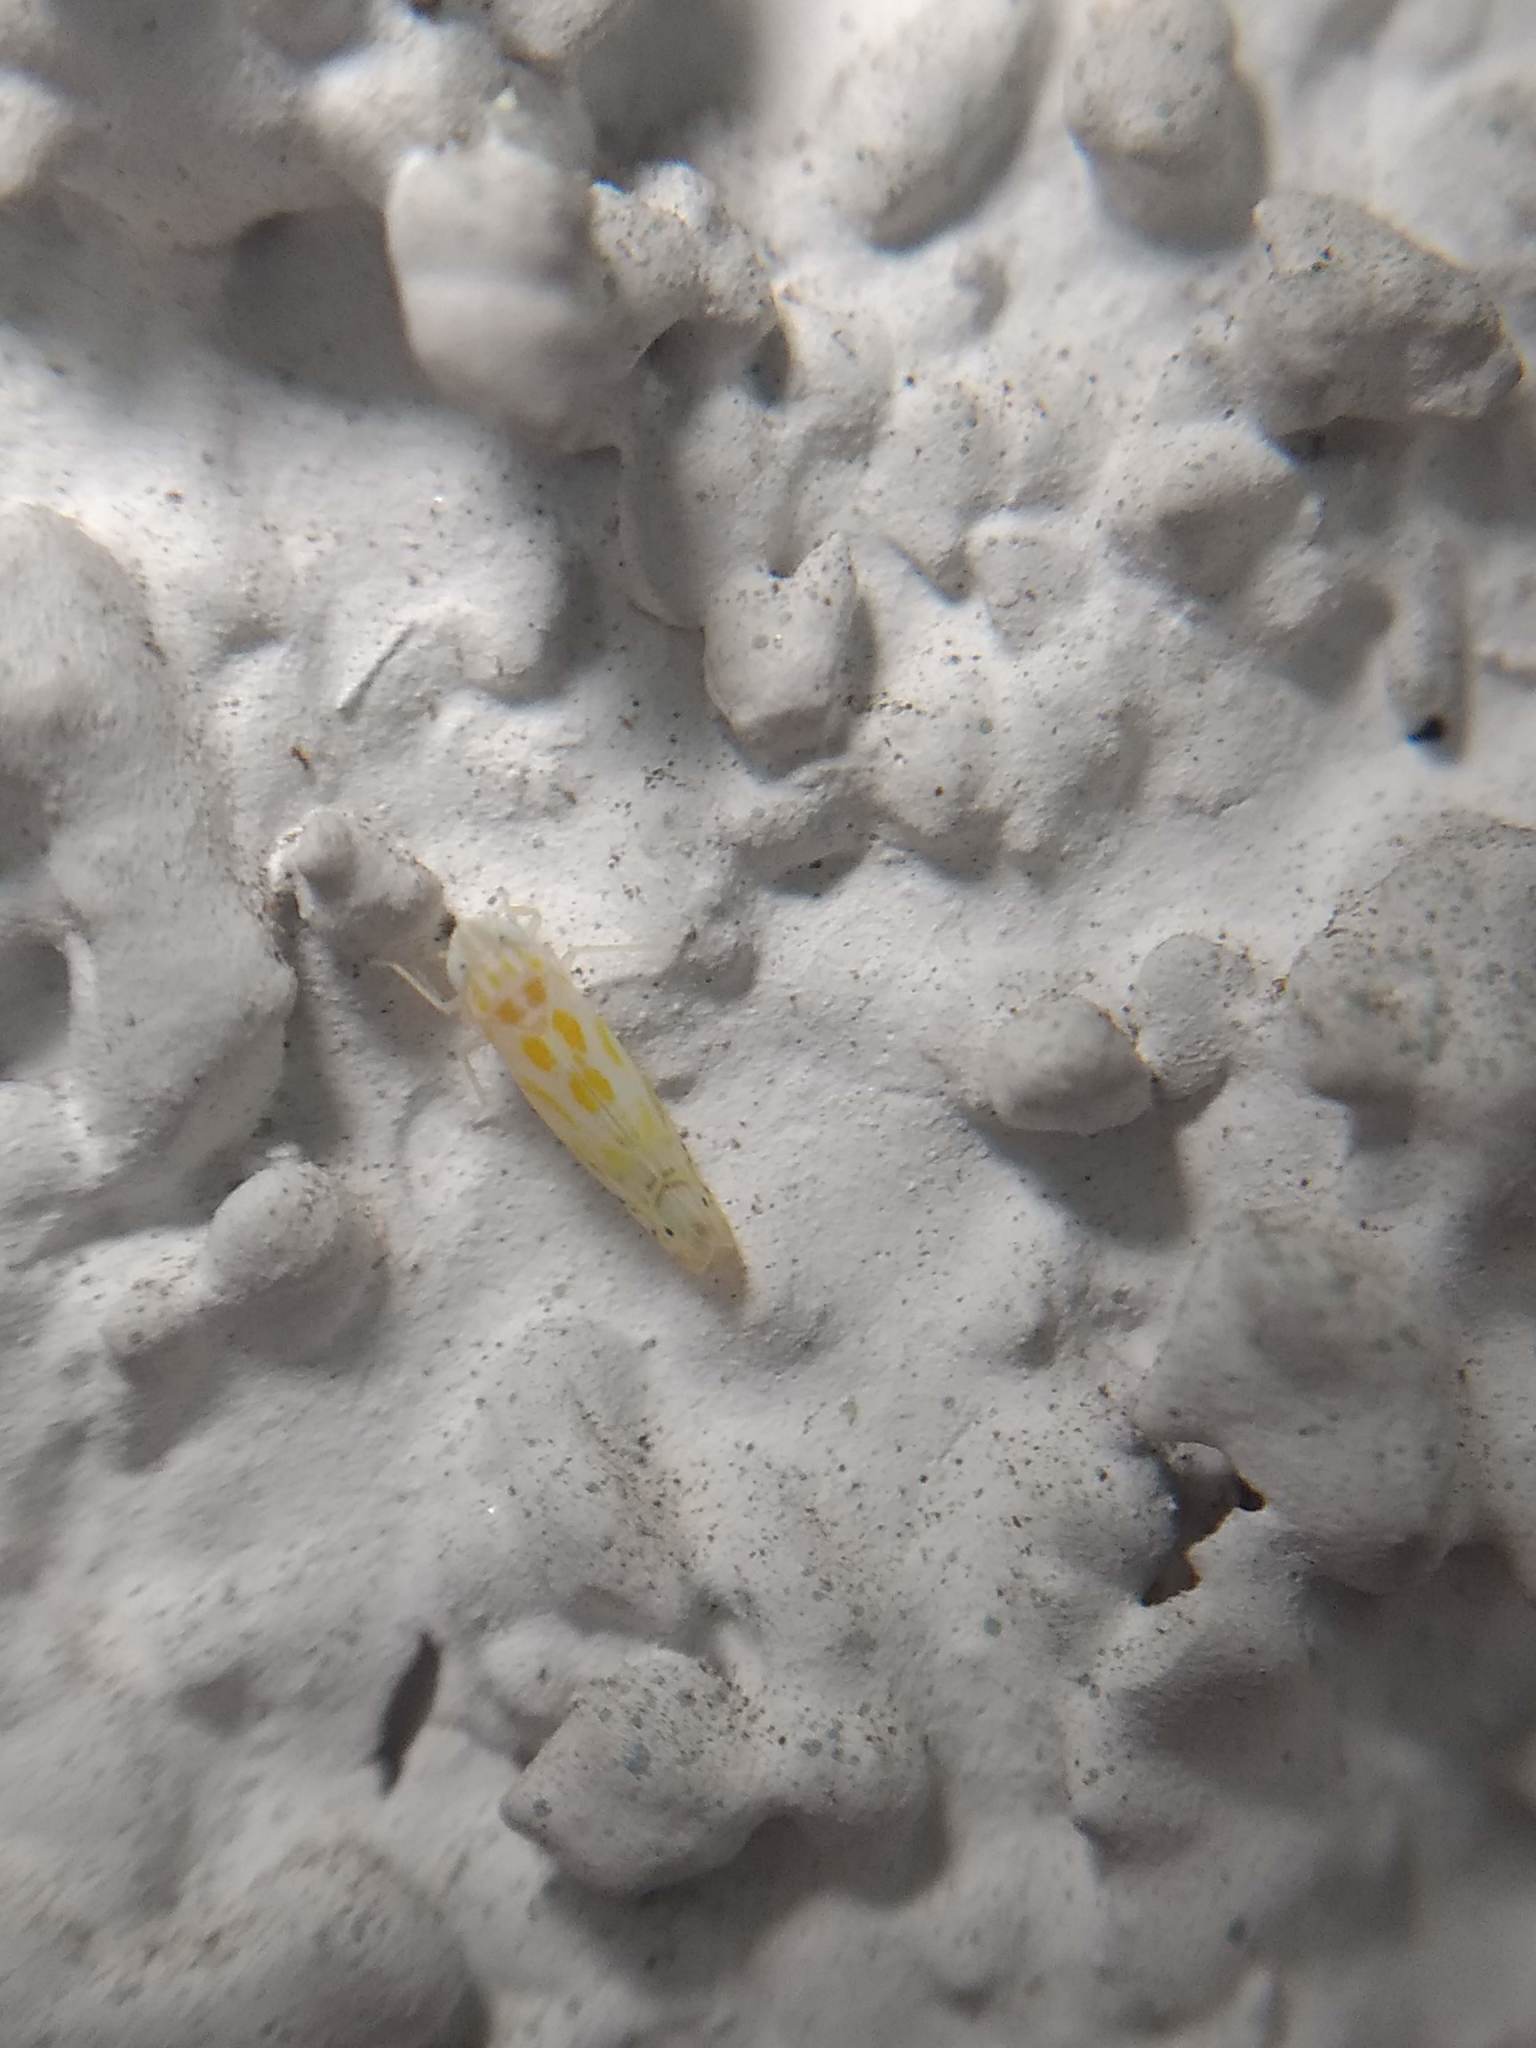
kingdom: Animalia
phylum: Arthropoda
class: Insecta
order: Hemiptera
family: Cicadellidae
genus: Alconeura
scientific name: Alconeura quadrimaculata
